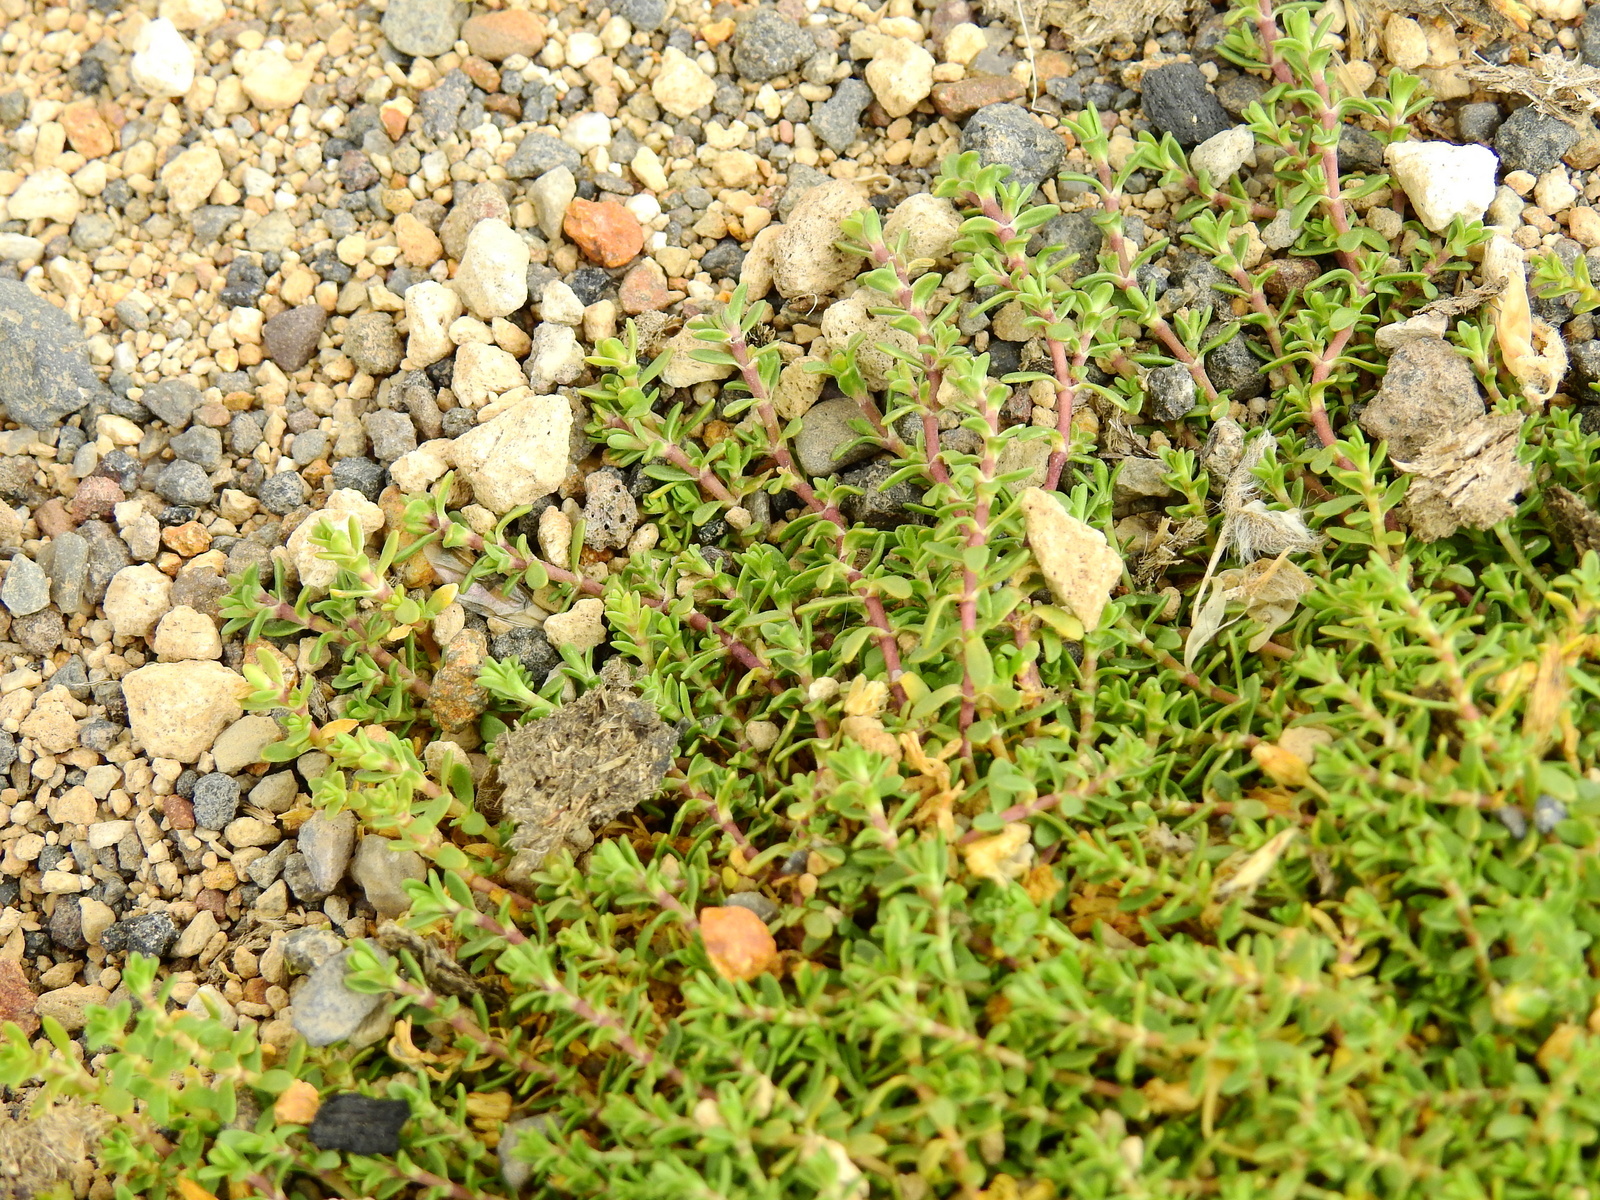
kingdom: Plantae
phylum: Tracheophyta
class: Magnoliopsida
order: Caryophyllales
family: Caryophyllaceae
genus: Arenaria
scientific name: Arenaria serpens
